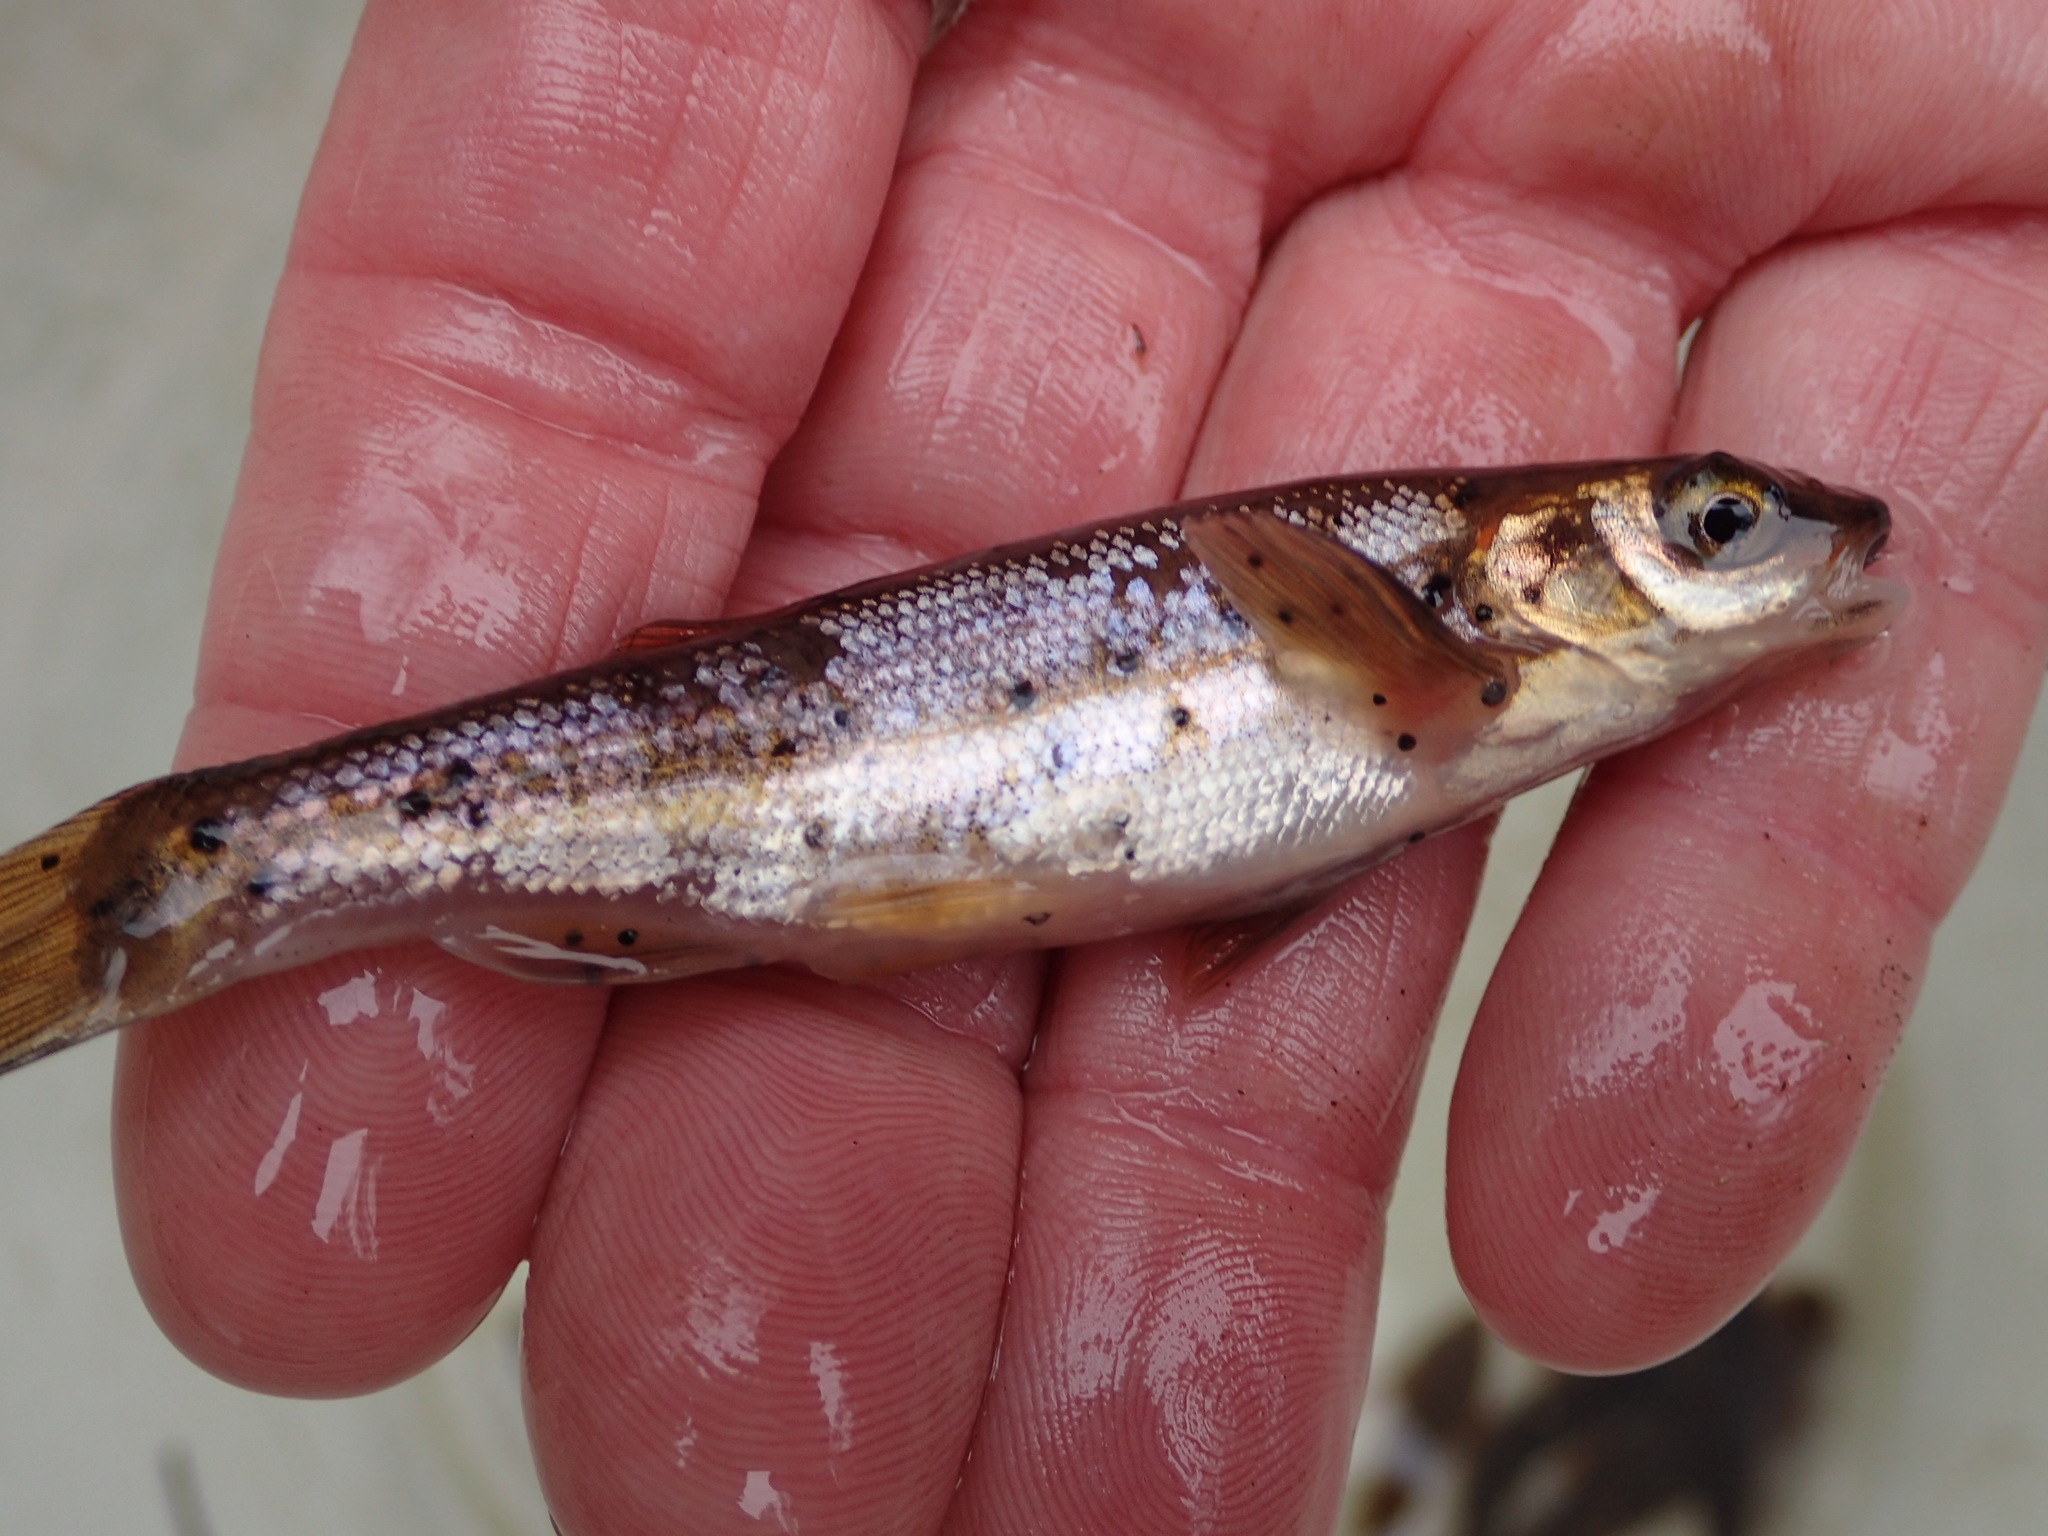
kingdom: Animalia
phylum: Chordata
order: Cypriniformes
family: Cyprinidae
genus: Couesius
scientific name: Couesius plumbeus
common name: Lake chub
